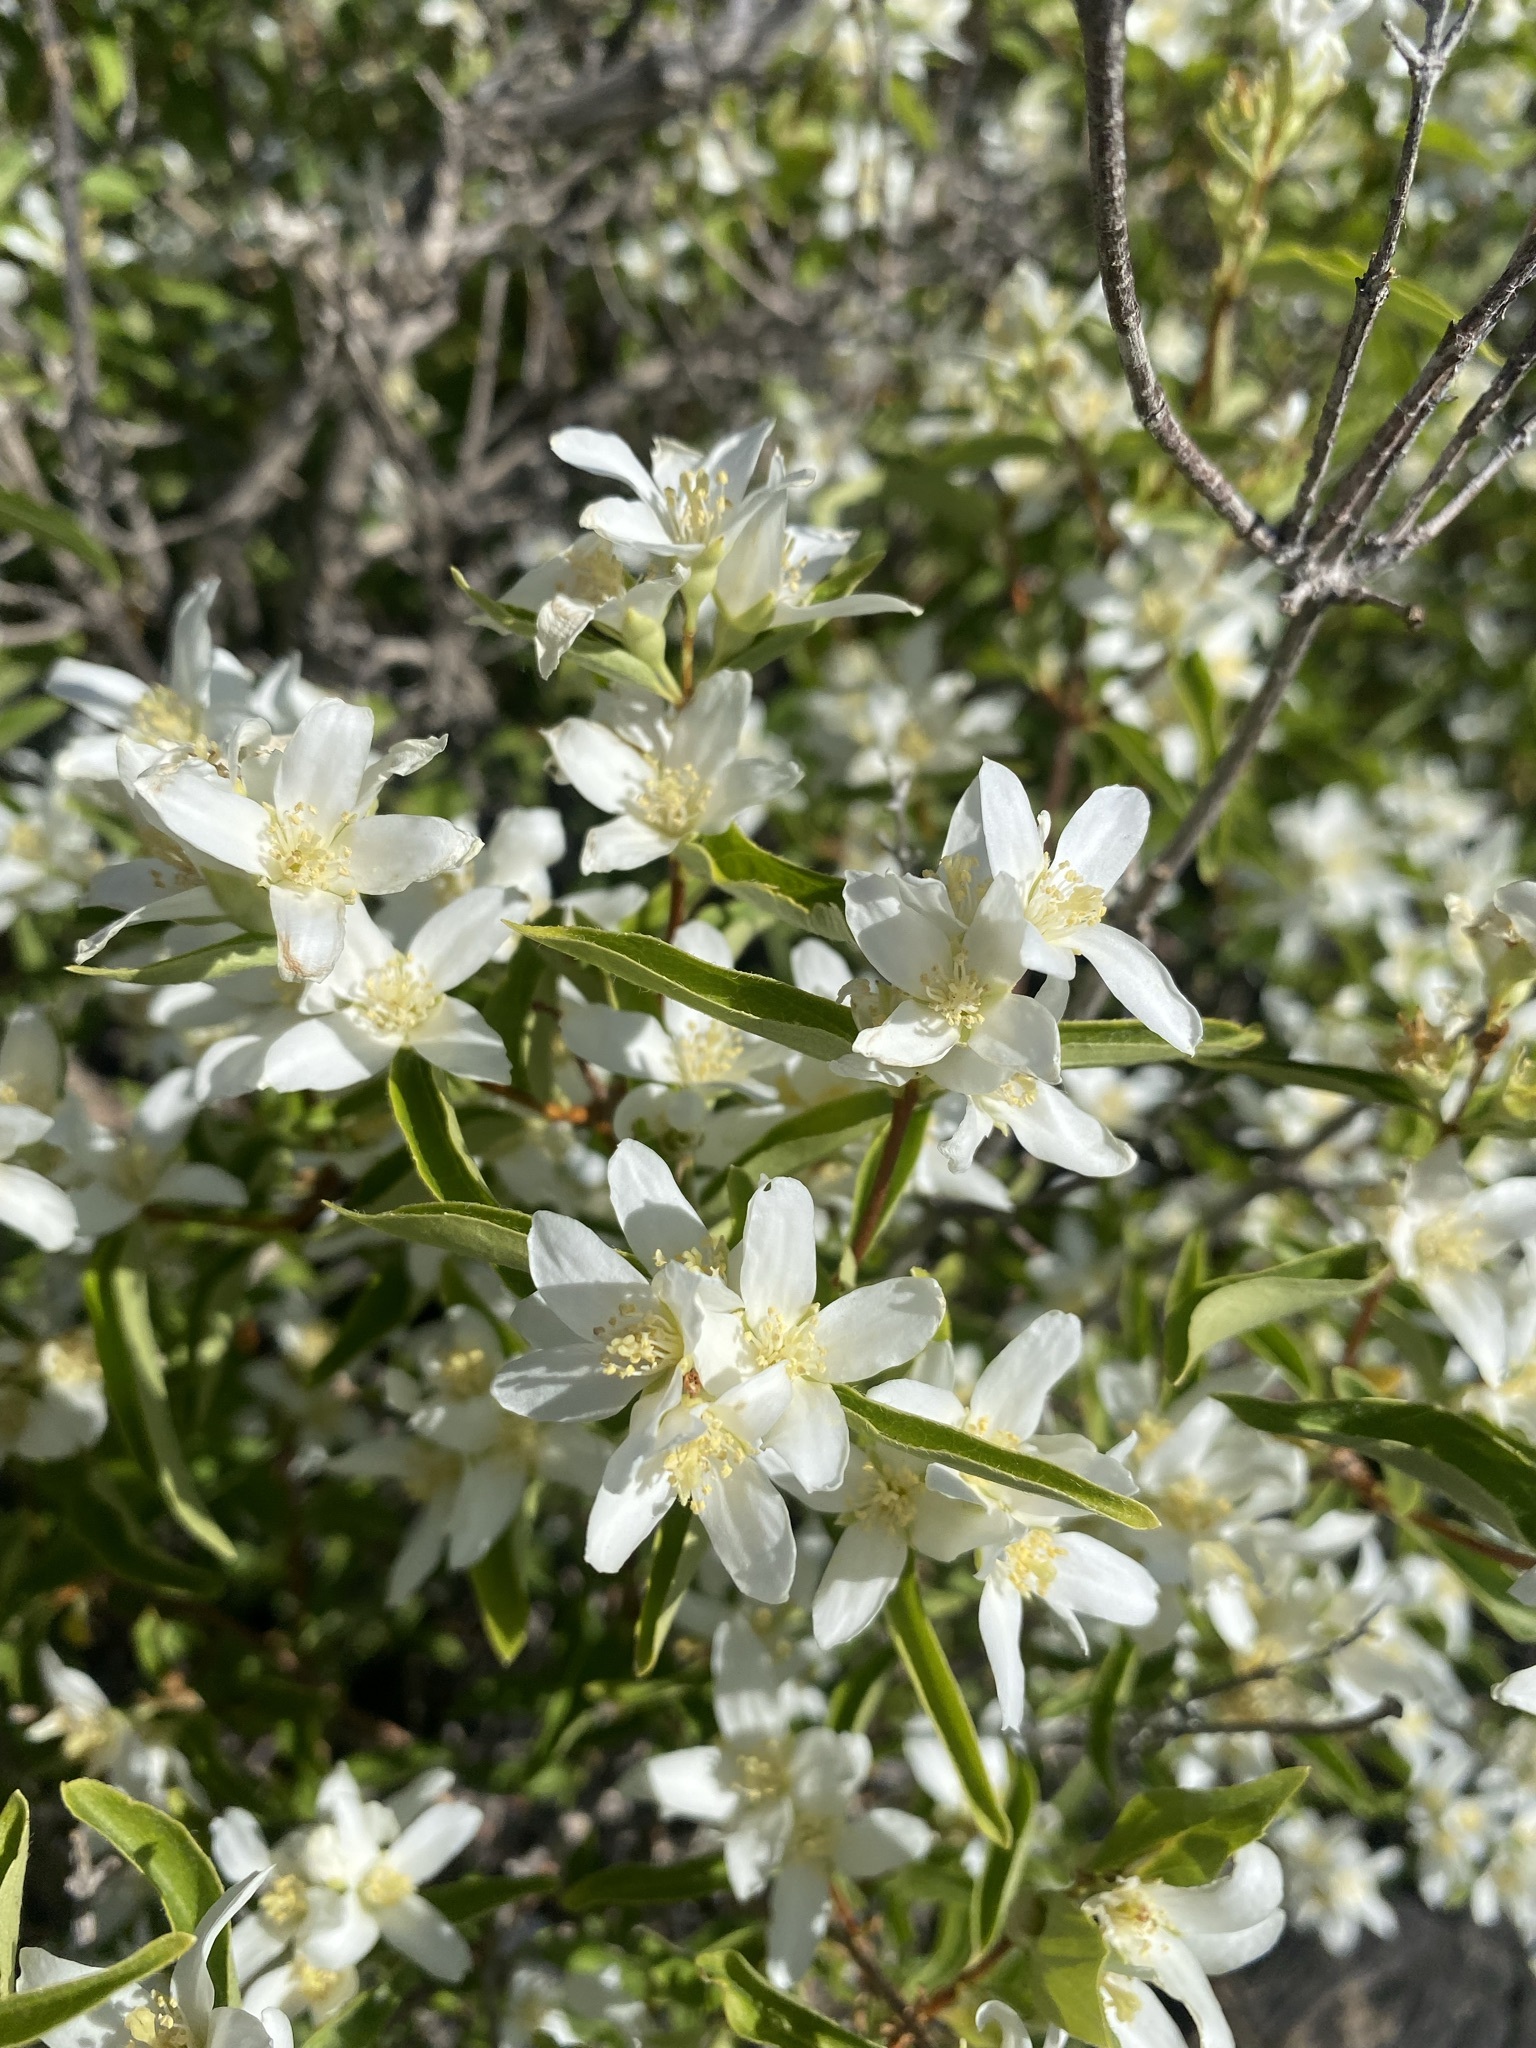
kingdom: Plantae
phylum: Tracheophyta
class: Magnoliopsida
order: Cornales
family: Hydrangeaceae
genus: Philadelphus
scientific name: Philadelphus lewisii
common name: Lewis's mock orange
